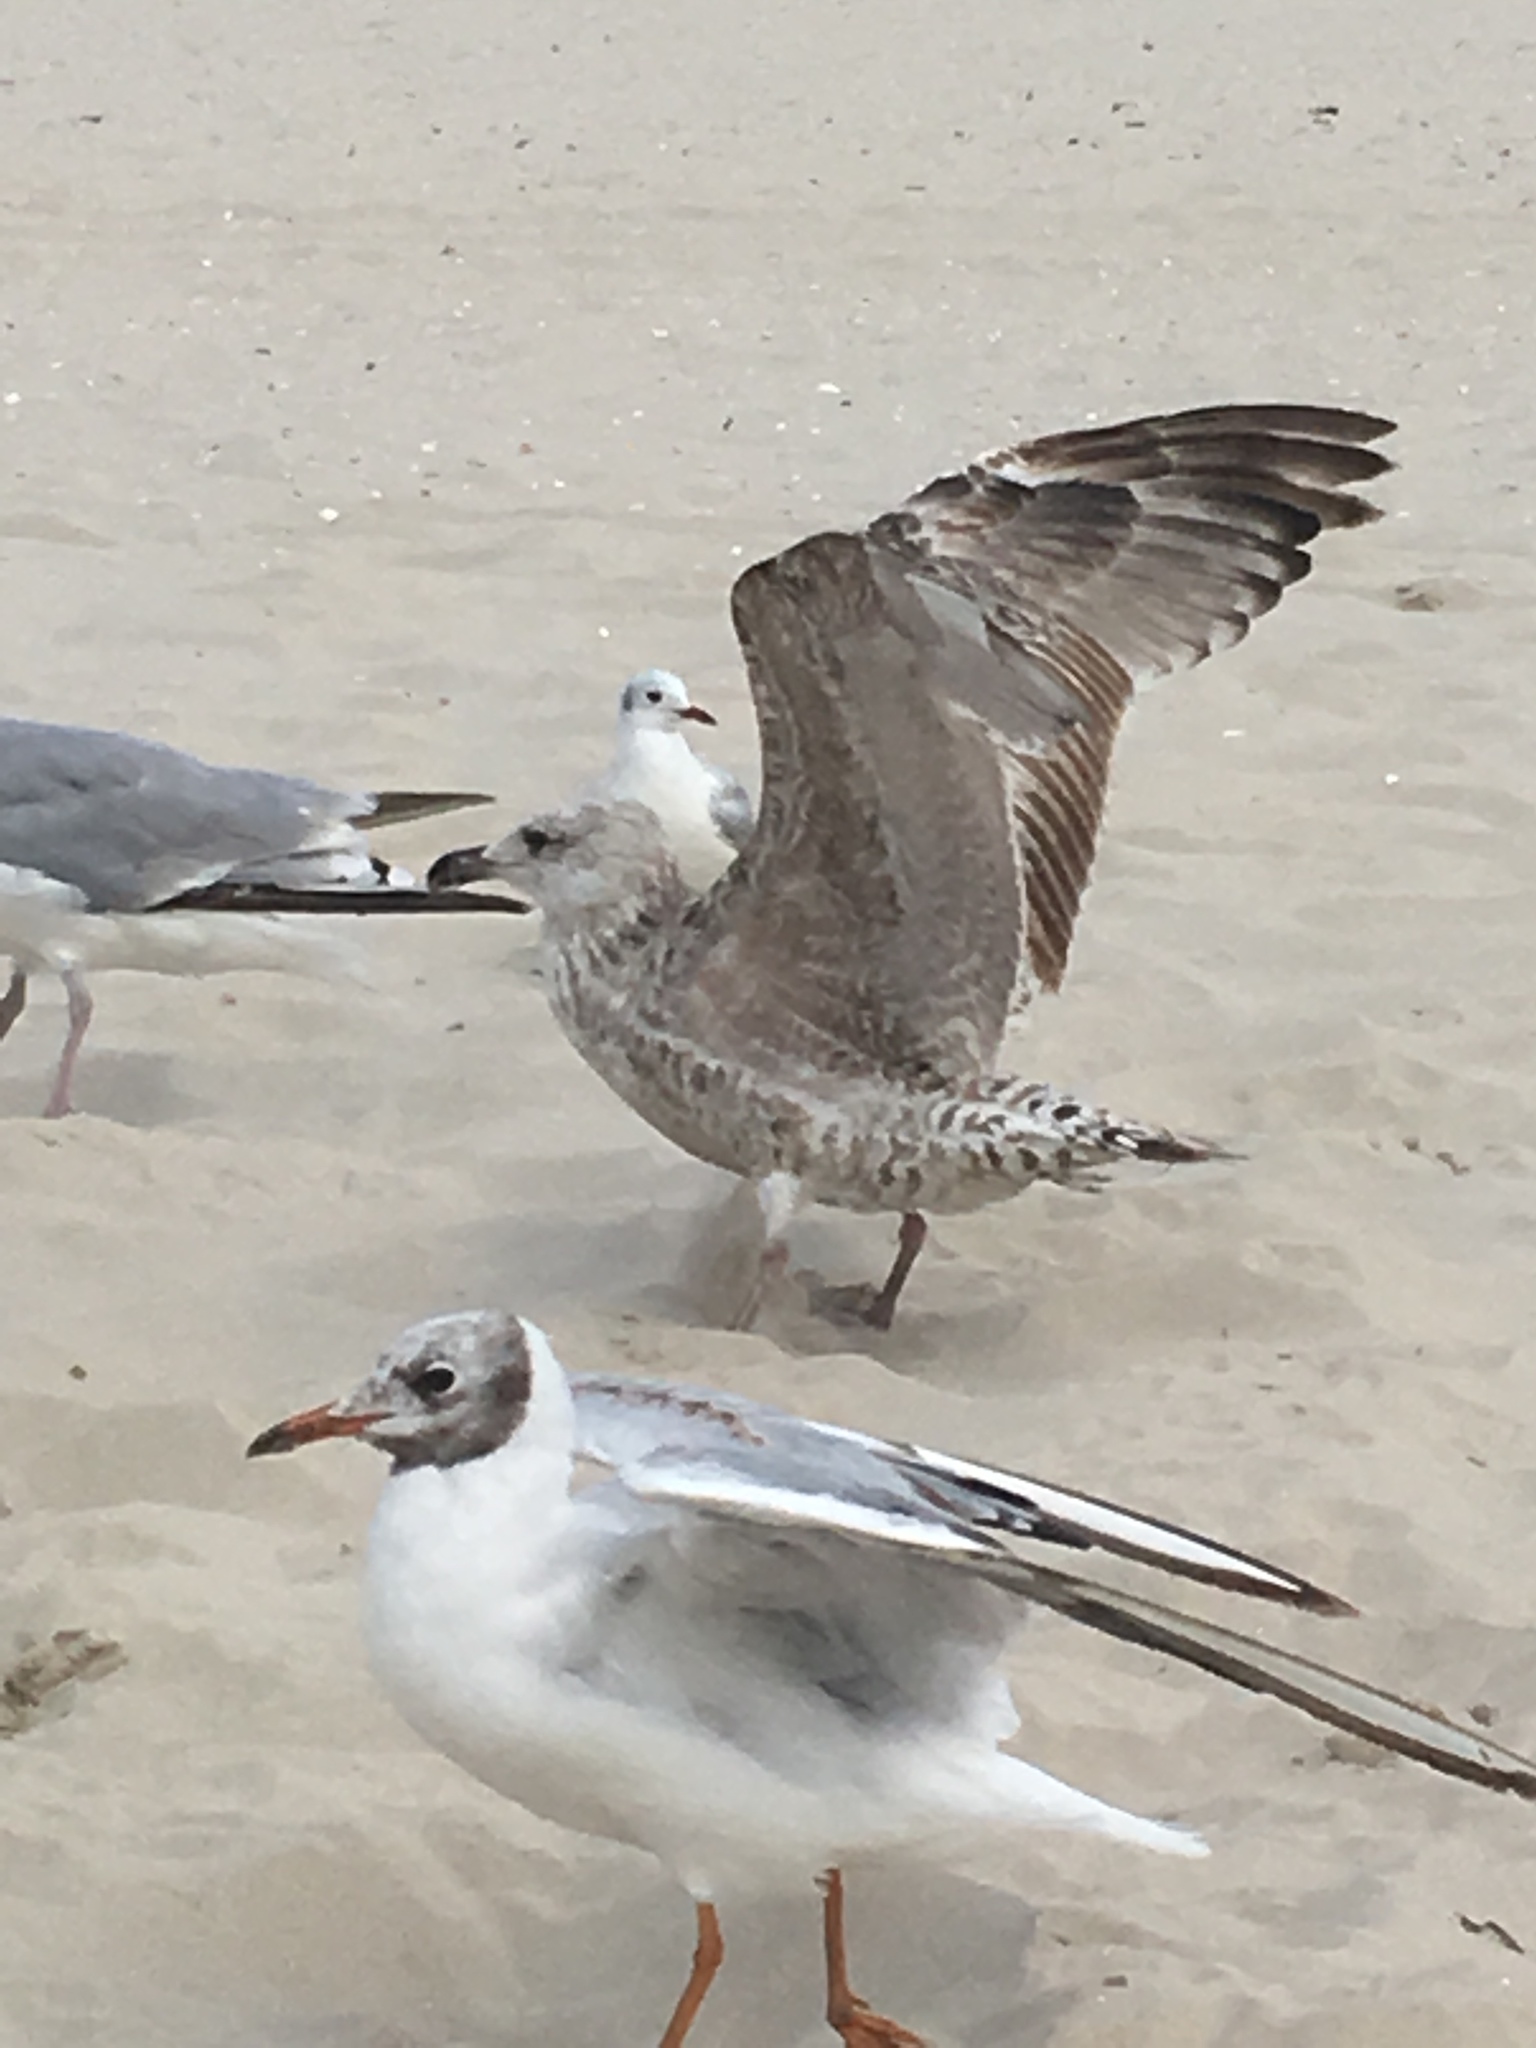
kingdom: Animalia
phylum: Chordata
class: Aves
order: Charadriiformes
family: Laridae
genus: Larus
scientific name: Larus argentatus
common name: Herring gull
